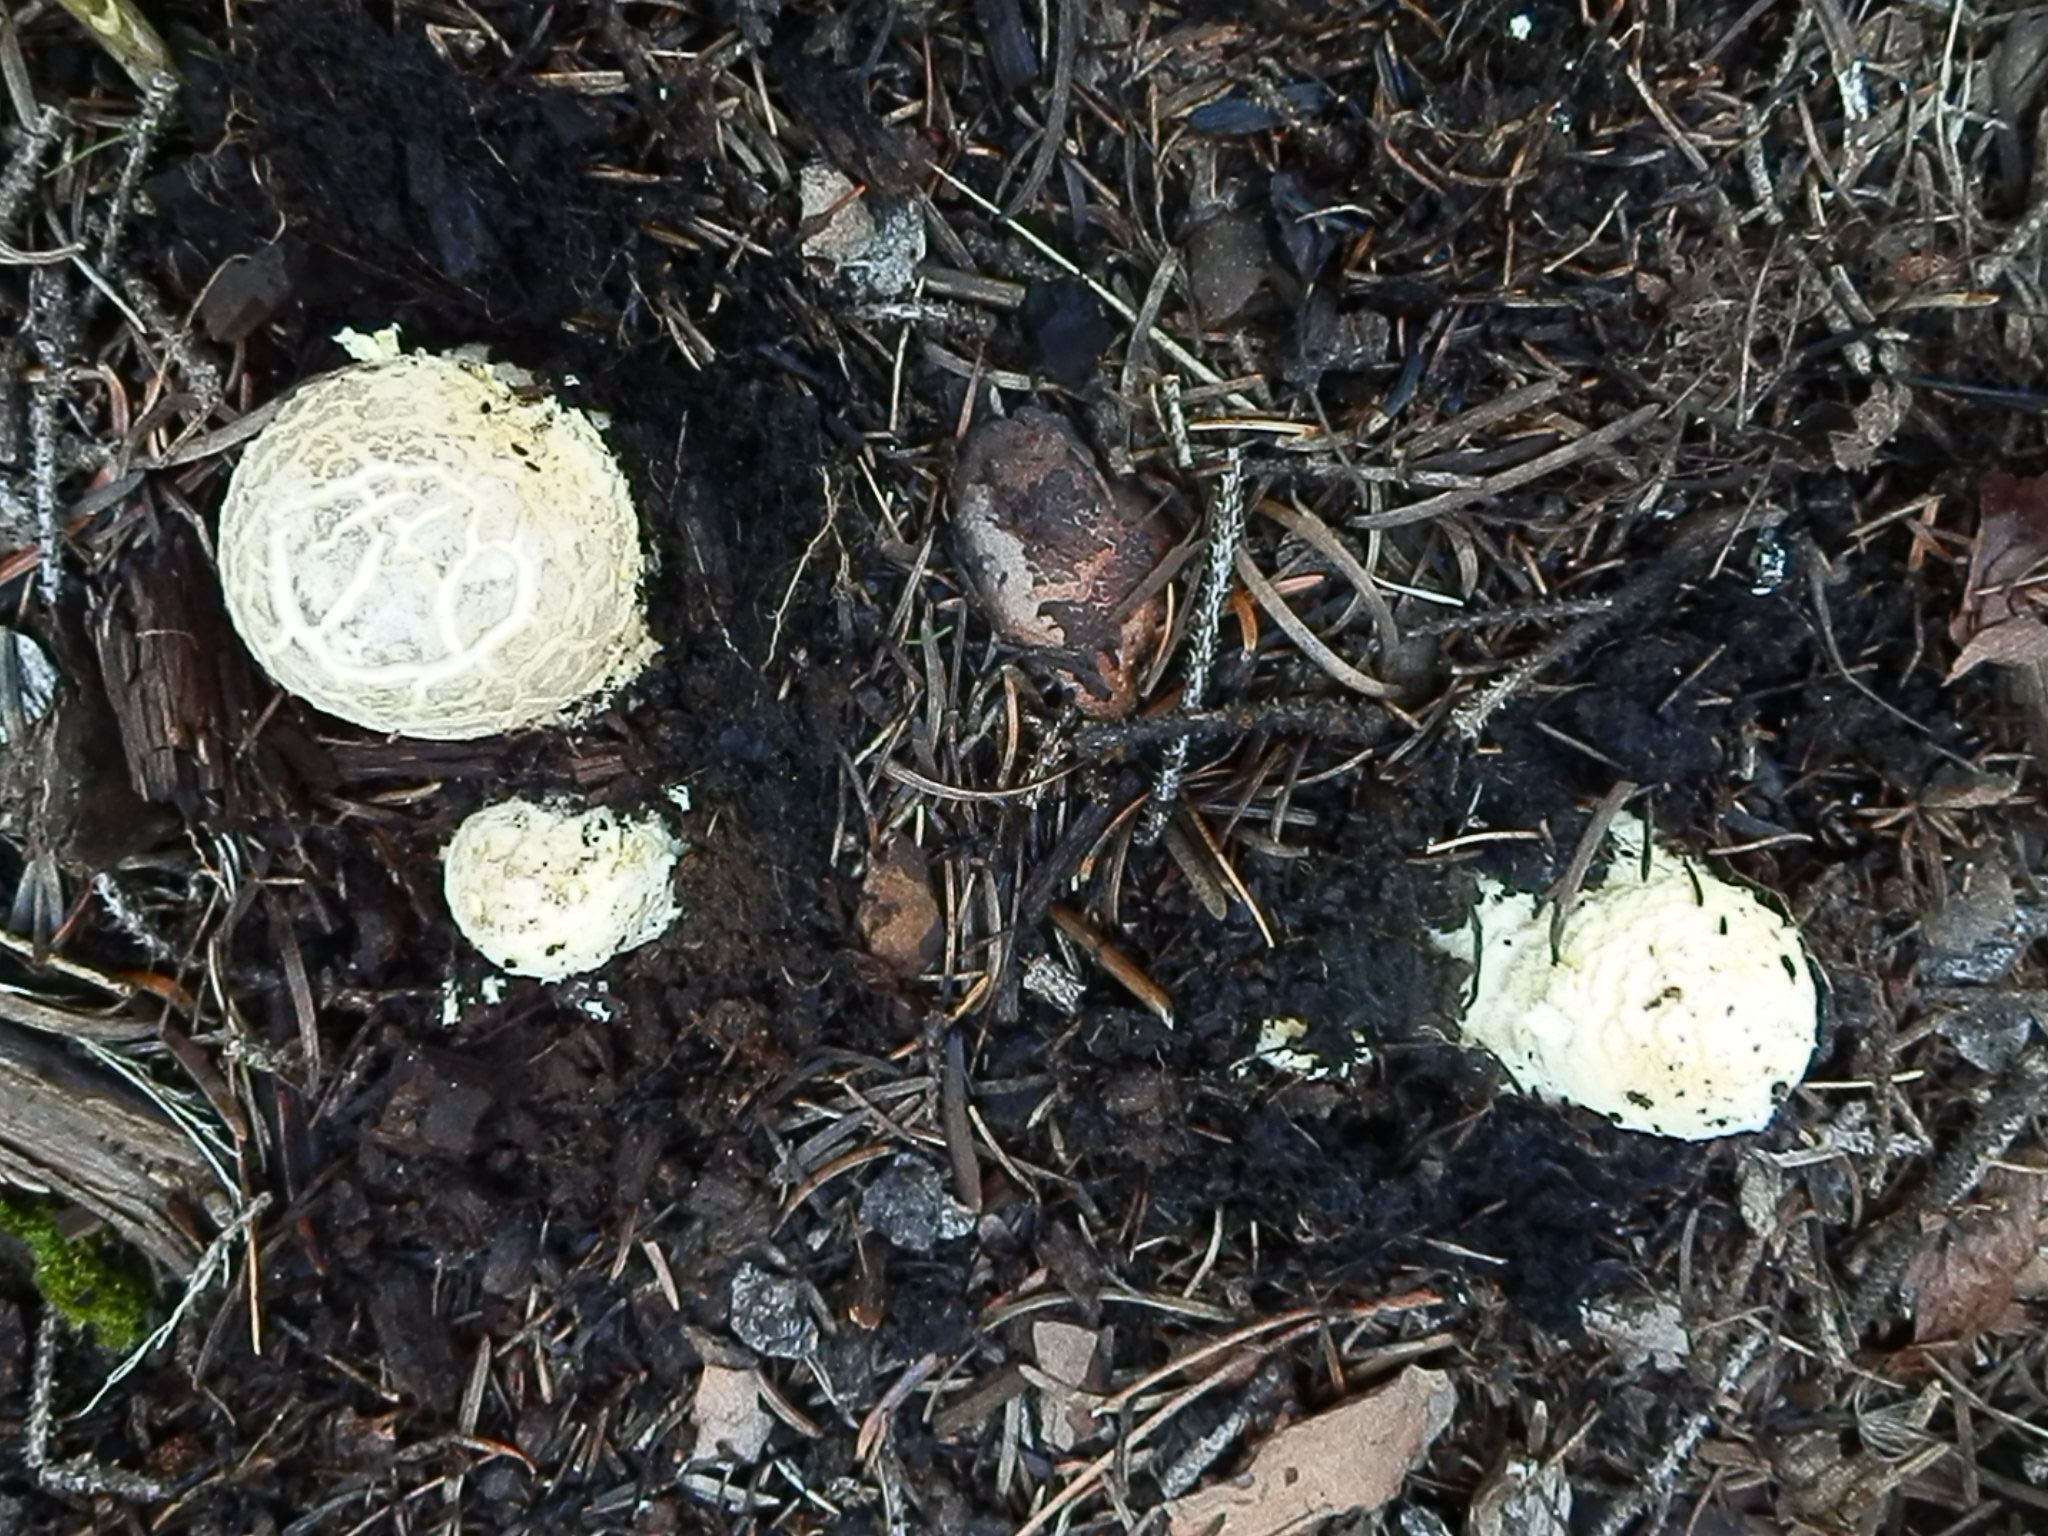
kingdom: Fungi
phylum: Basidiomycota
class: Agaricomycetes
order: Agaricales
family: Amanitaceae
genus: Amanita
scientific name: Amanita muscaria
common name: Fly agaric
